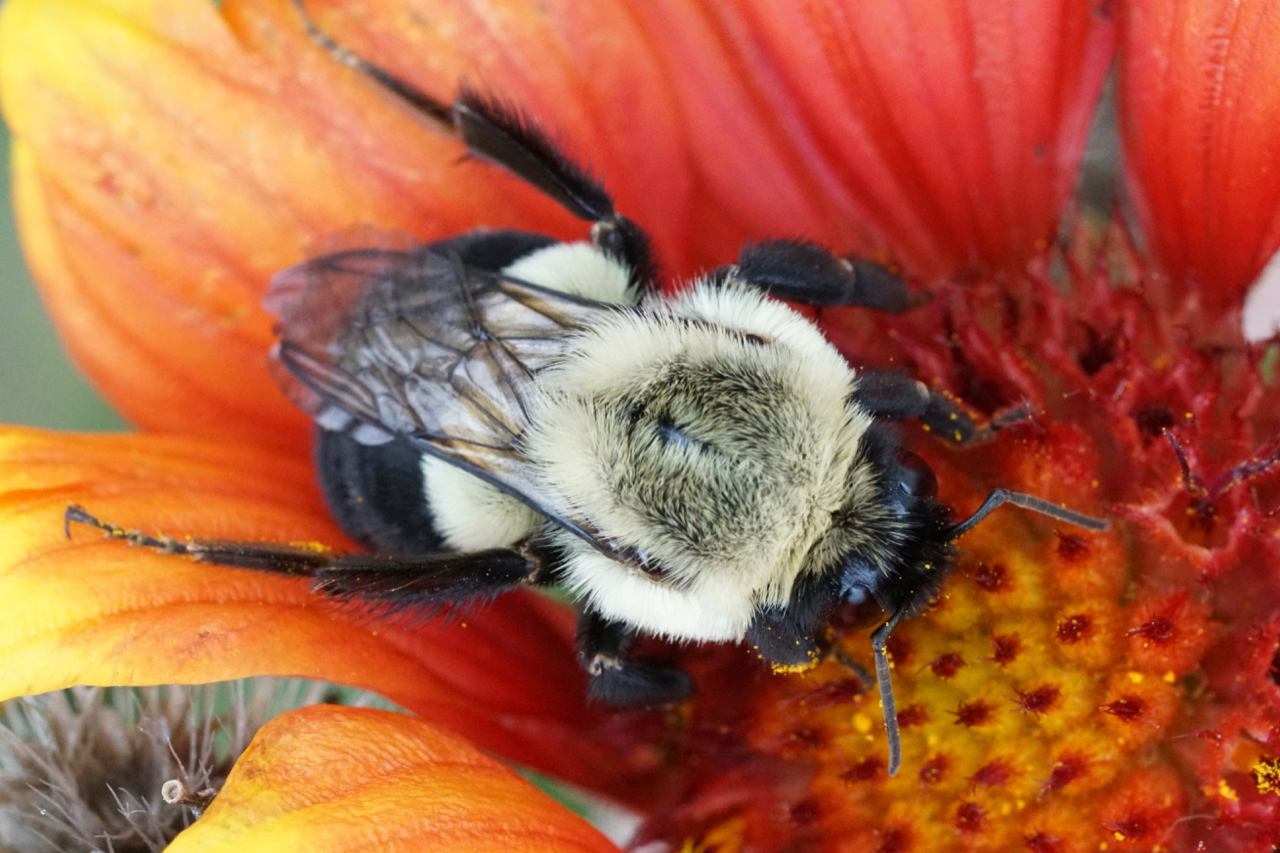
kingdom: Animalia
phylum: Arthropoda
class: Insecta
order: Hymenoptera
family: Apidae
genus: Bombus
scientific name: Bombus impatiens
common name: Common eastern bumble bee
